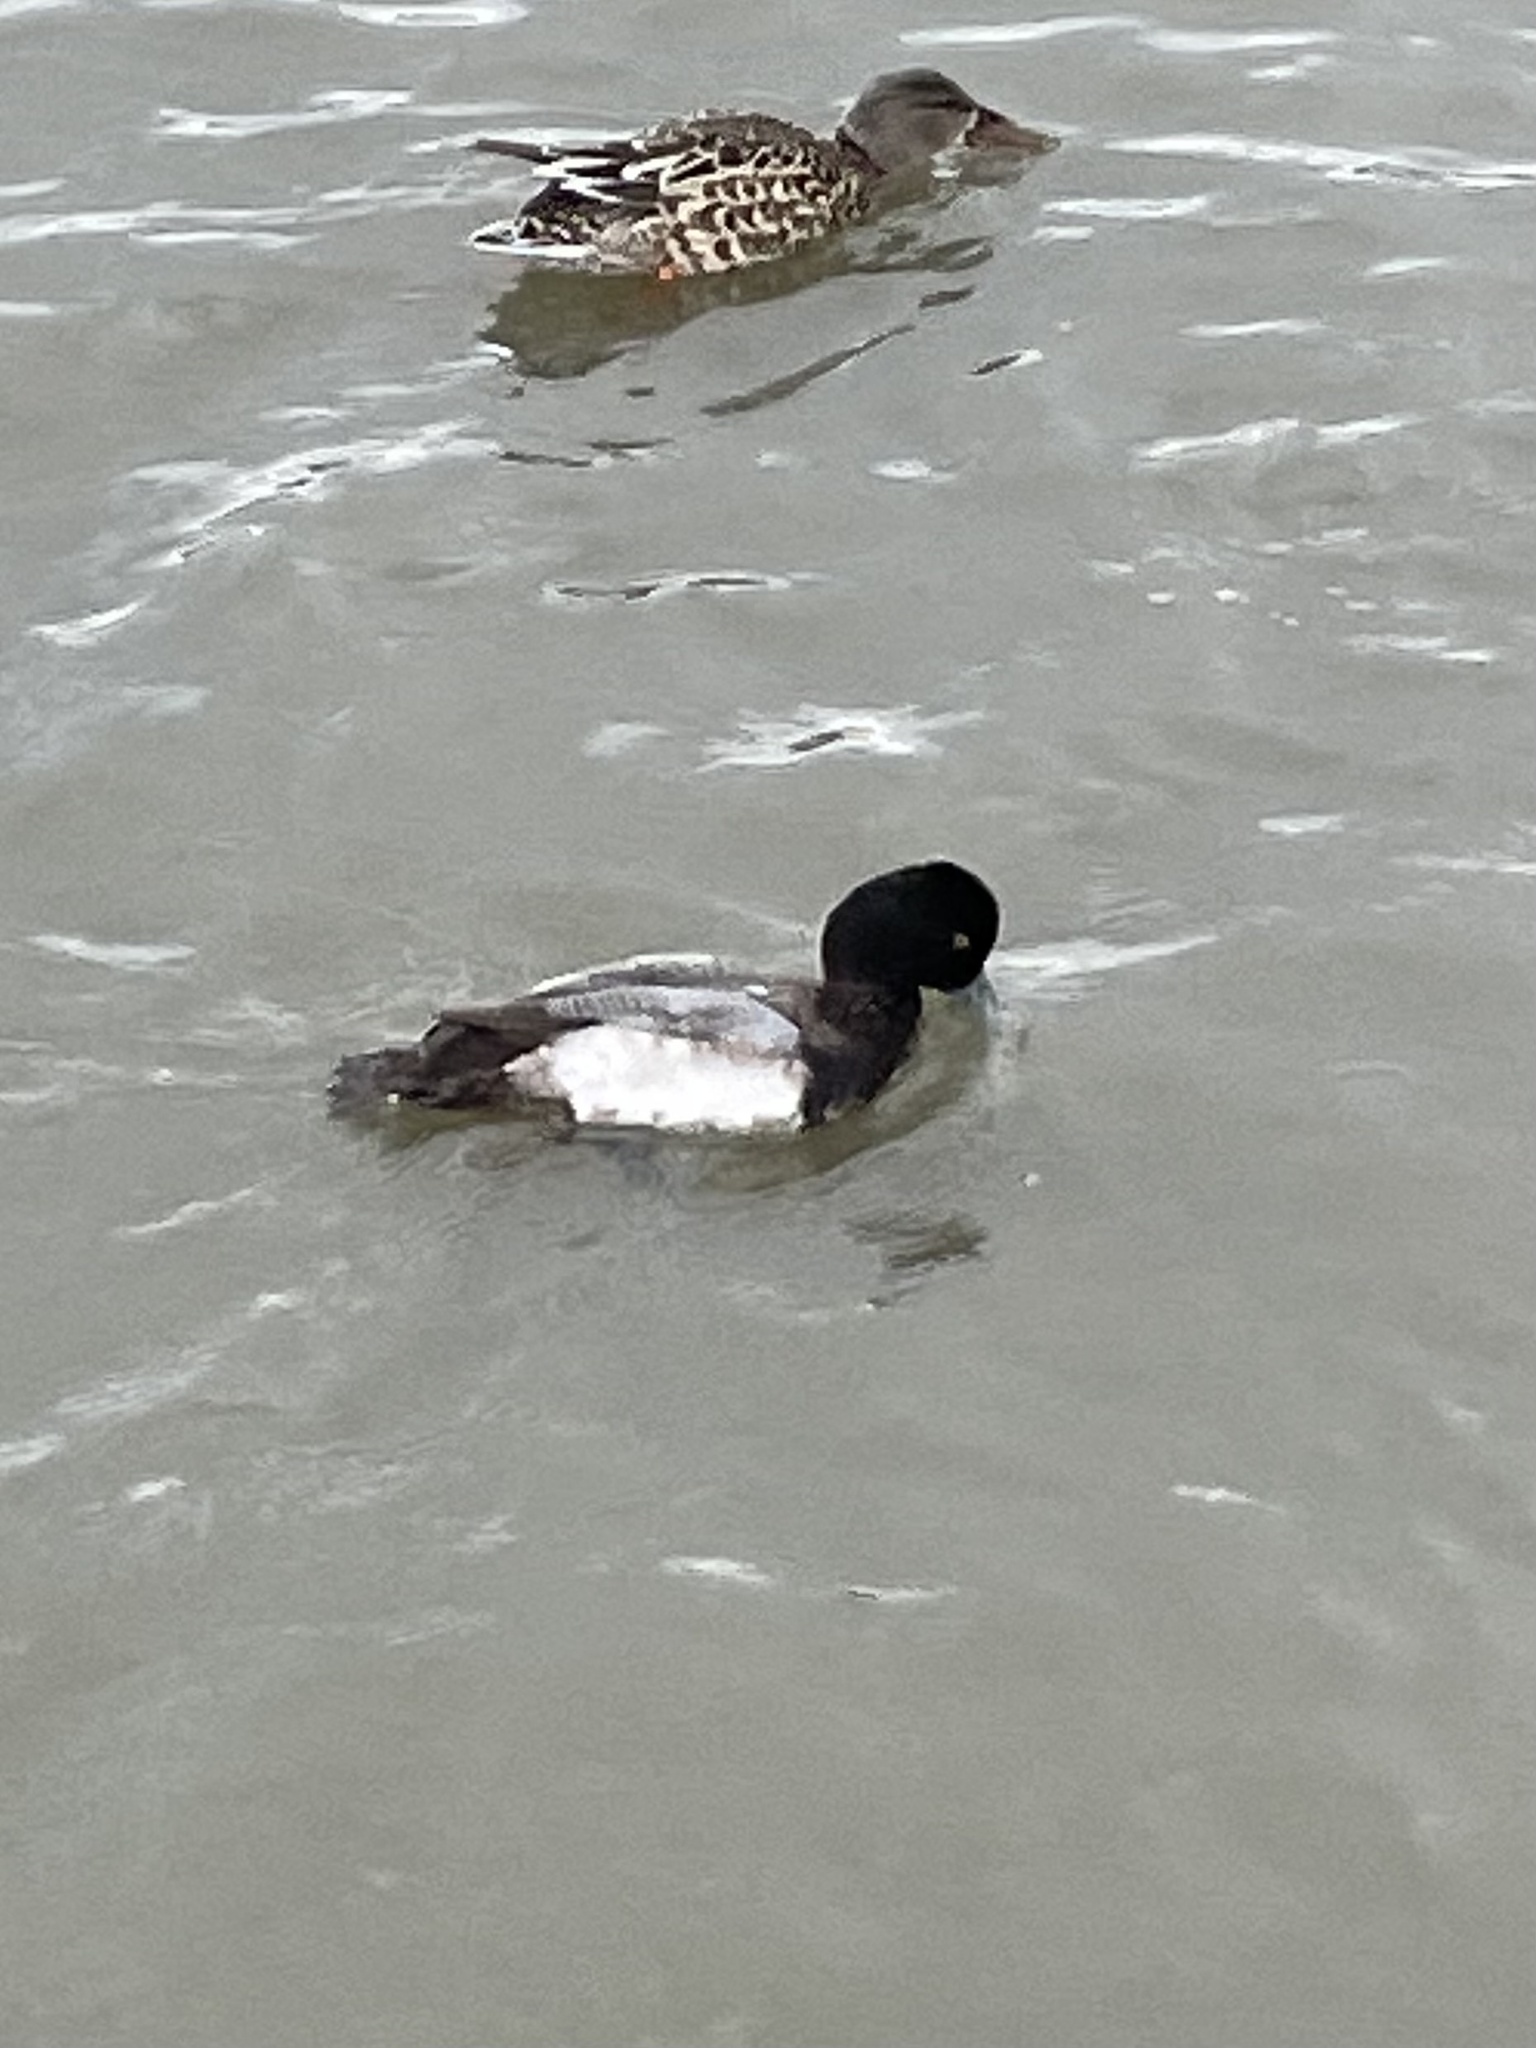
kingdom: Animalia
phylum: Chordata
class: Aves
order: Anseriformes
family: Anatidae
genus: Aythya
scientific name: Aythya affinis
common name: Lesser scaup
